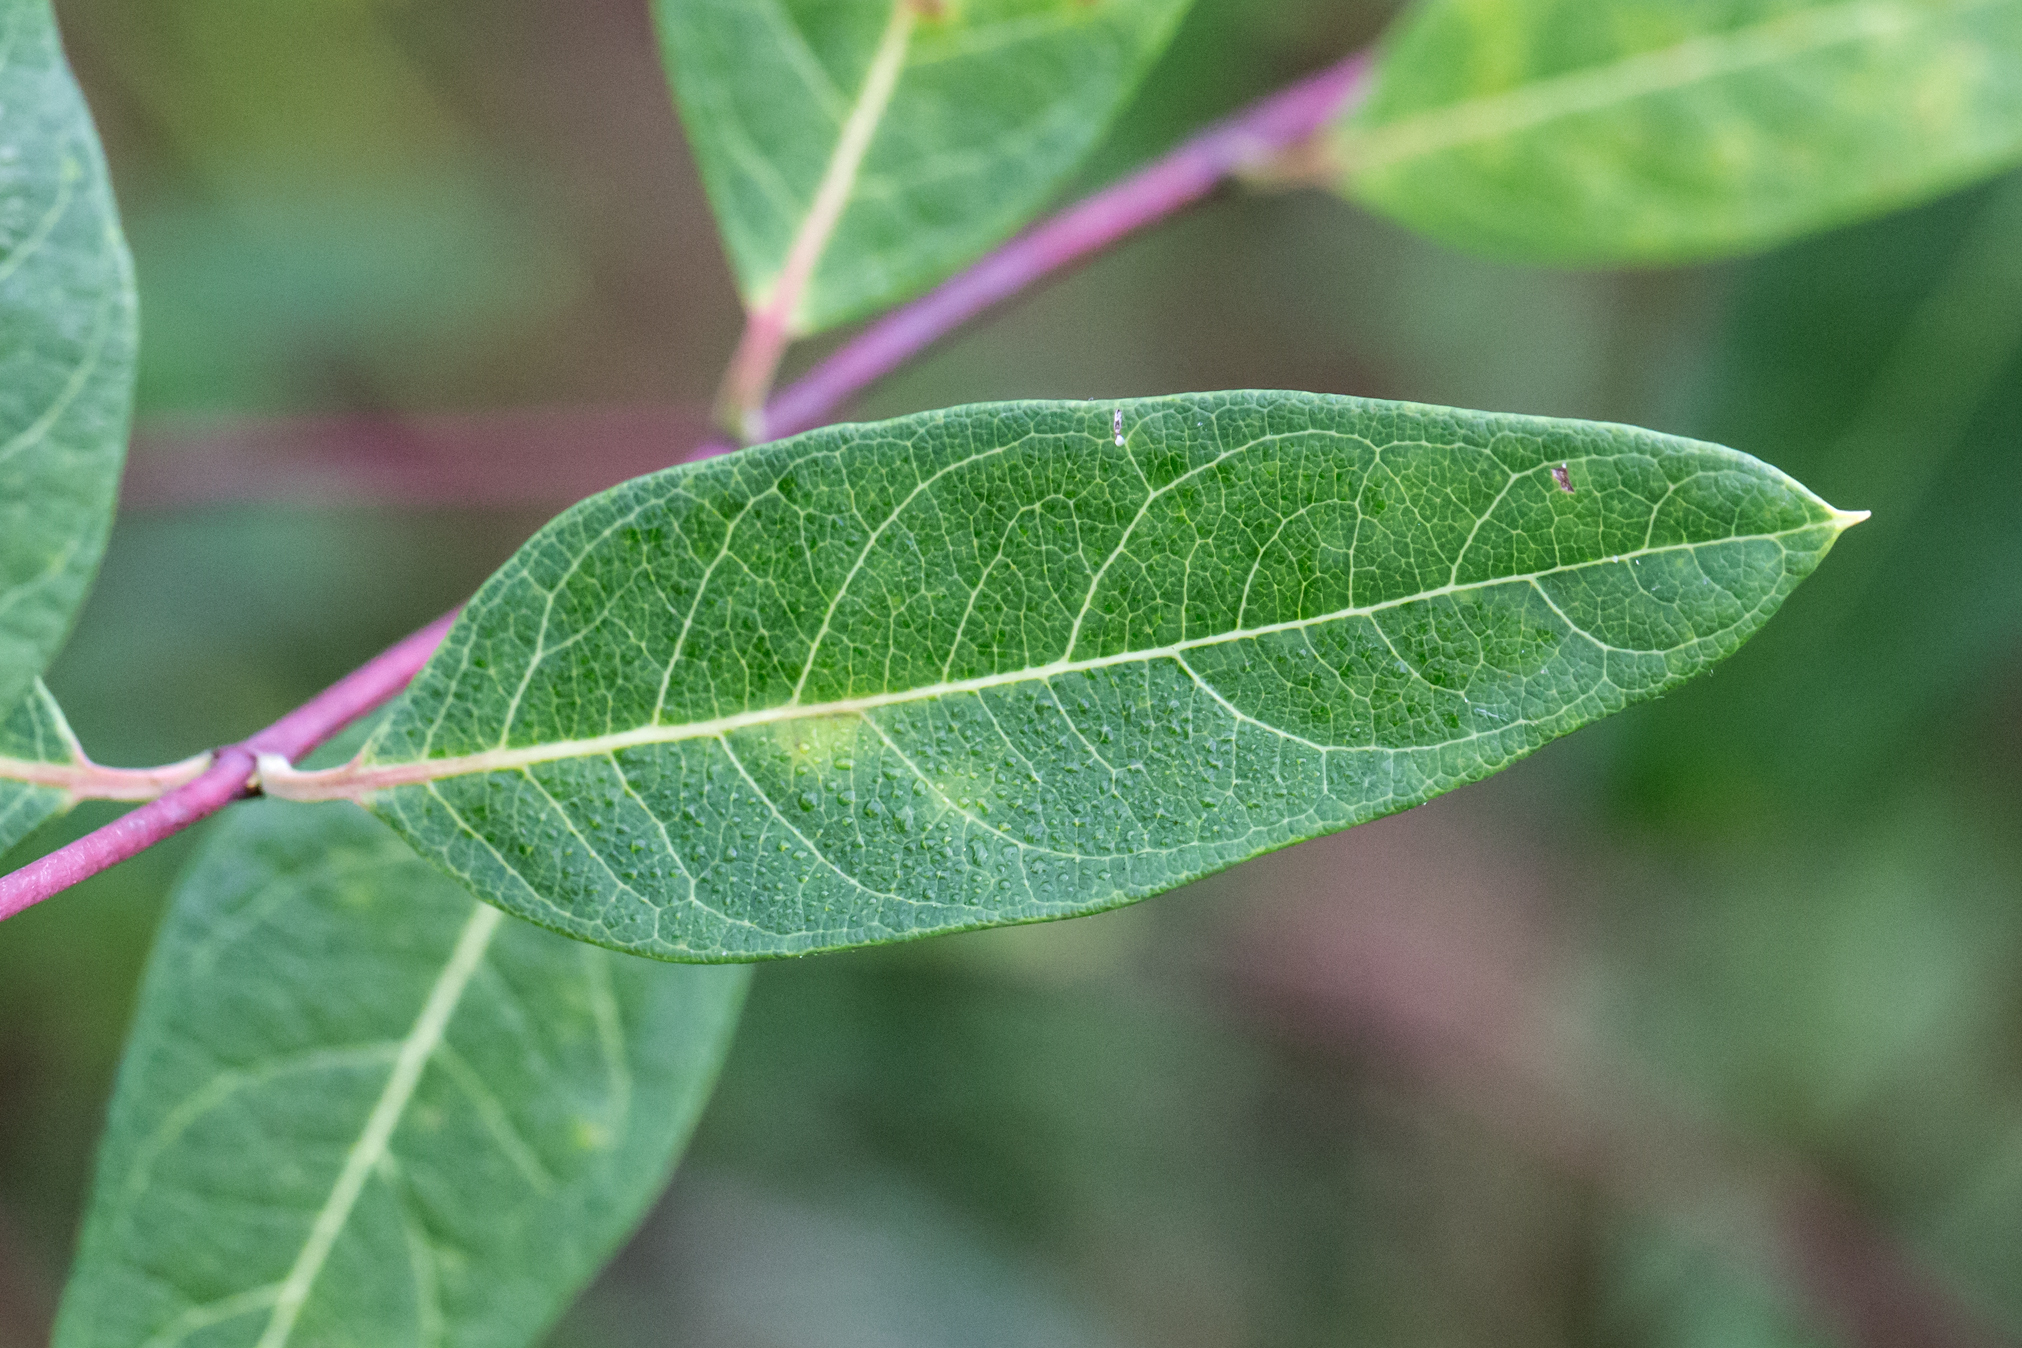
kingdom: Plantae
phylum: Tracheophyta
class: Magnoliopsida
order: Gentianales
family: Apocynaceae
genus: Apocynum
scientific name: Apocynum cannabinum
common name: Hemp dogbane
